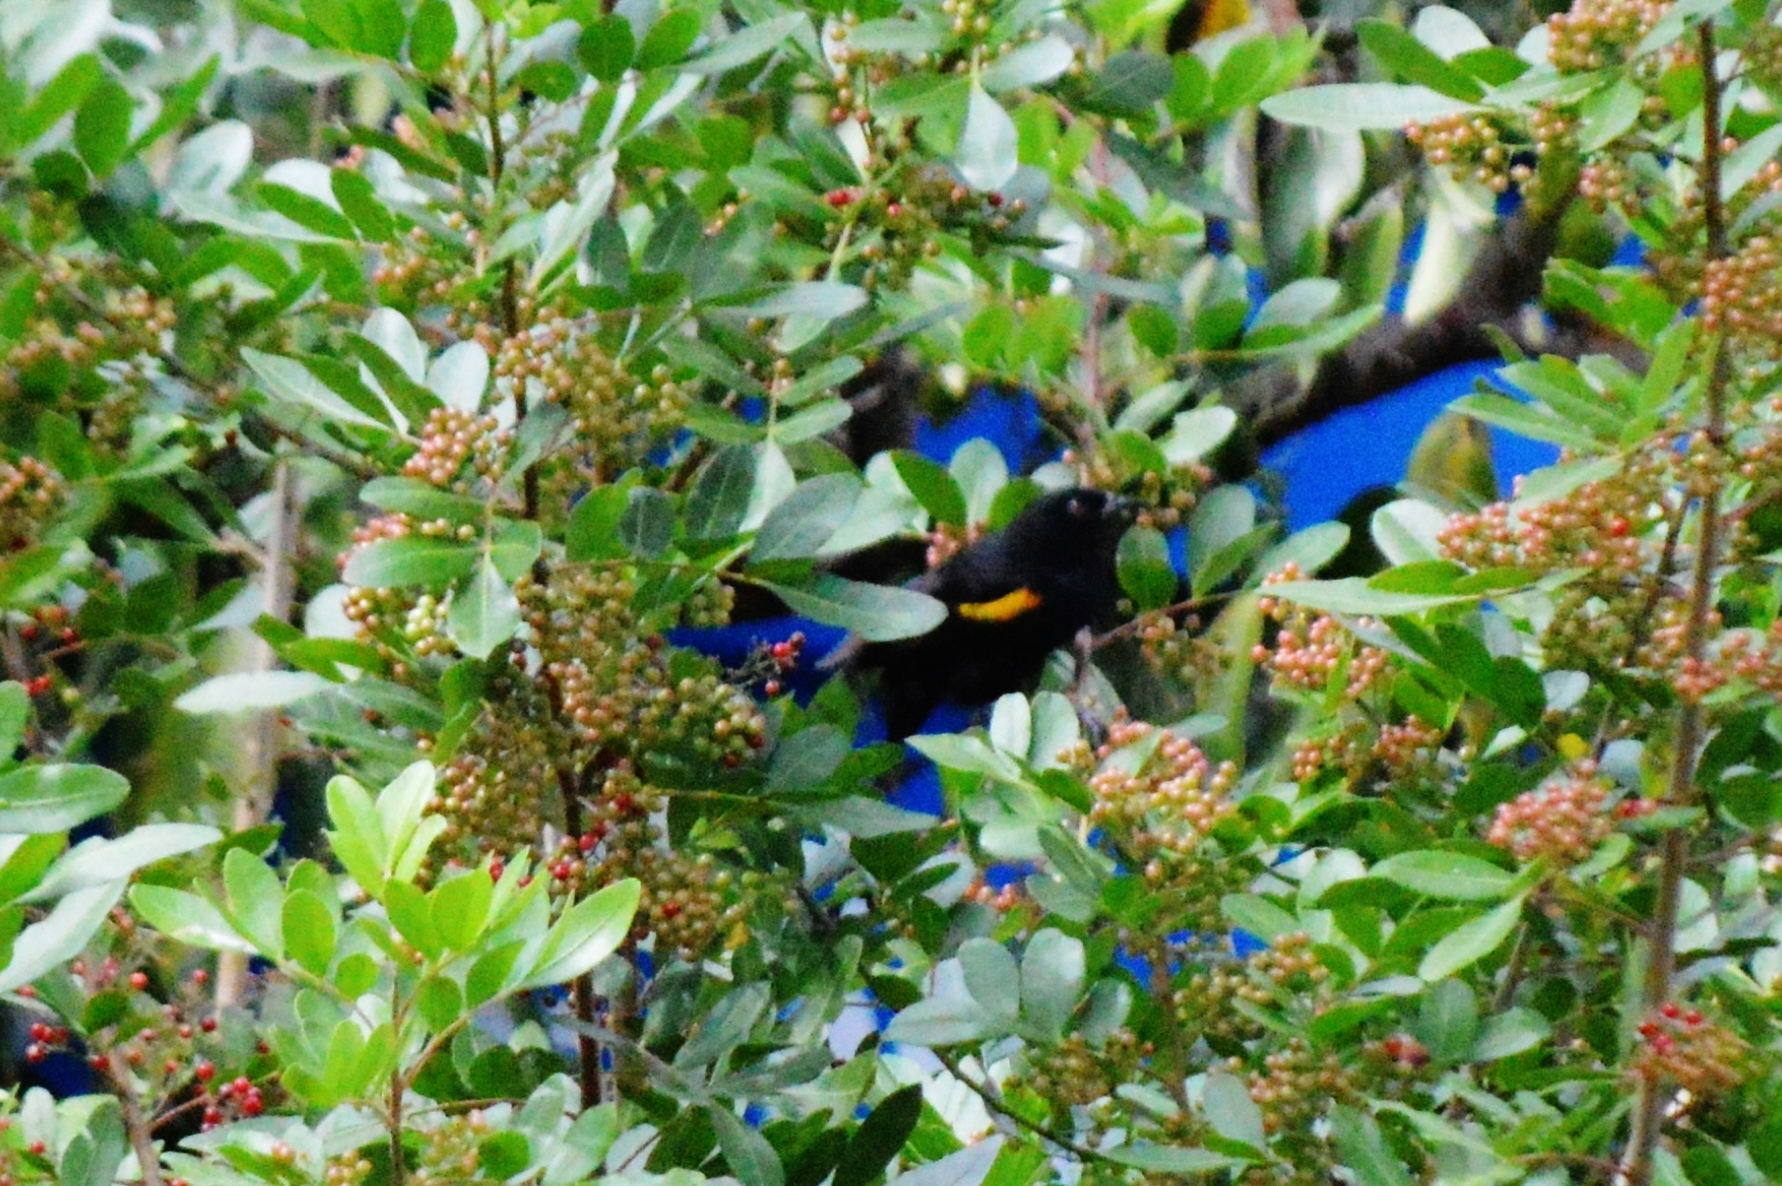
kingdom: Animalia
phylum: Chordata
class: Aves
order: Passeriformes
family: Icteridae
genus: Icterus
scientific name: Icterus cayanensis
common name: Epaulet oriole
